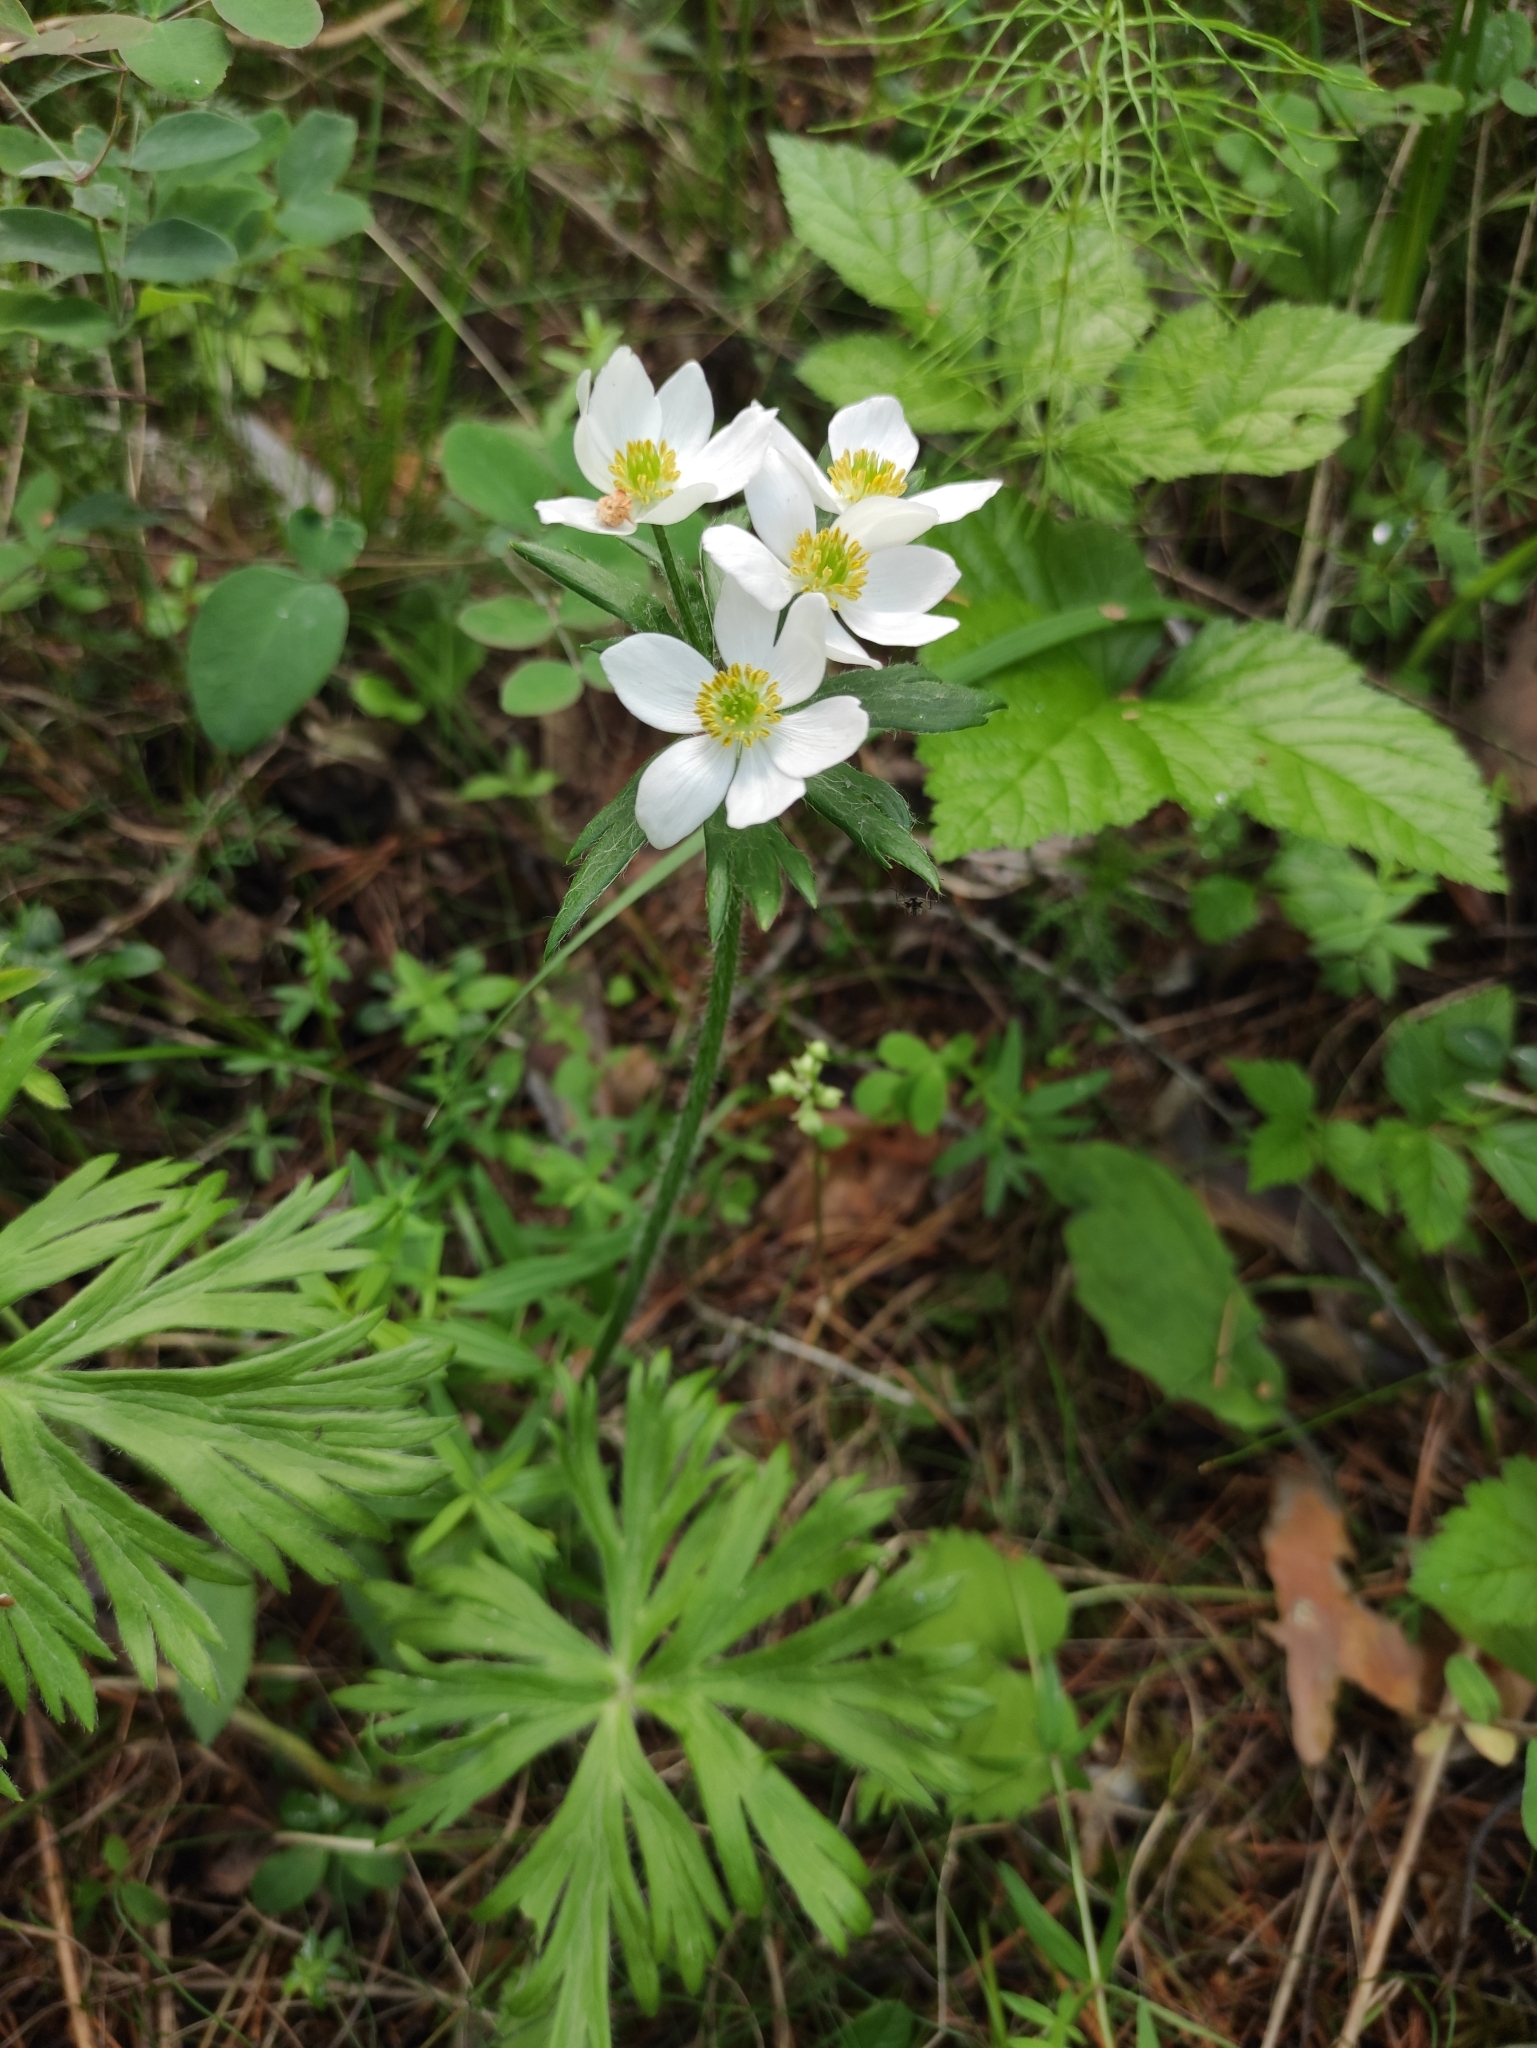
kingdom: Plantae
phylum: Tracheophyta
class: Magnoliopsida
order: Ranunculales
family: Ranunculaceae
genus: Anemonastrum
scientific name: Anemonastrum narcissiflorum
